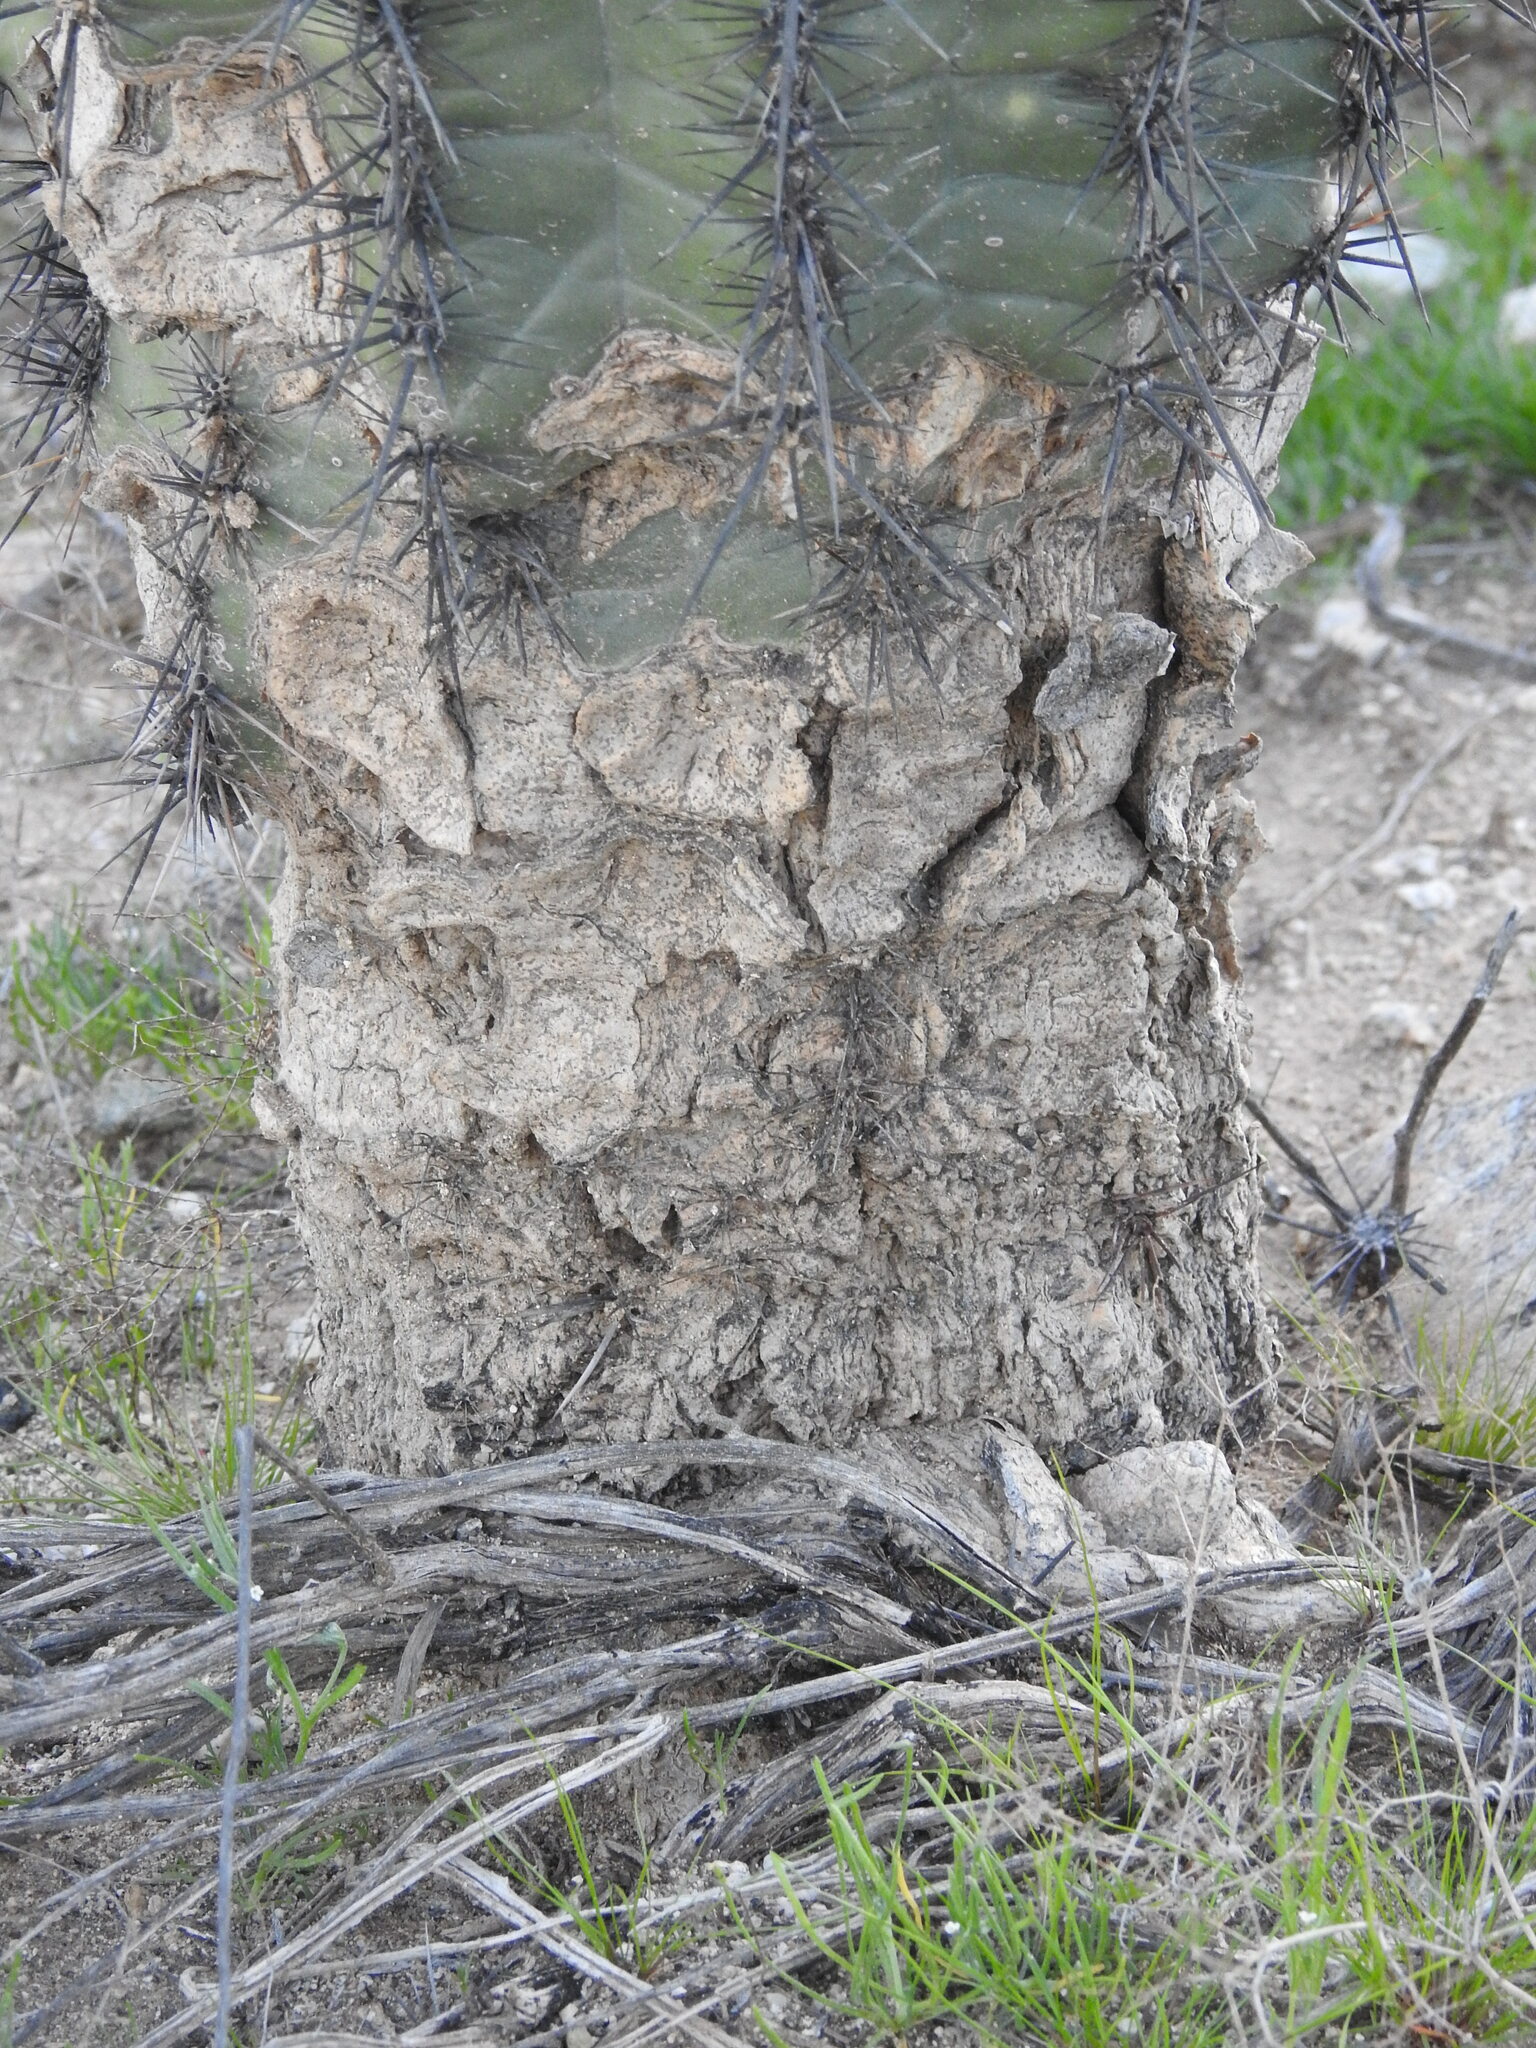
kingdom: Plantae
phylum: Tracheophyta
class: Magnoliopsida
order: Caryophyllales
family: Cactaceae
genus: Carnegiea
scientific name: Carnegiea gigantea
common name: Saguaro
